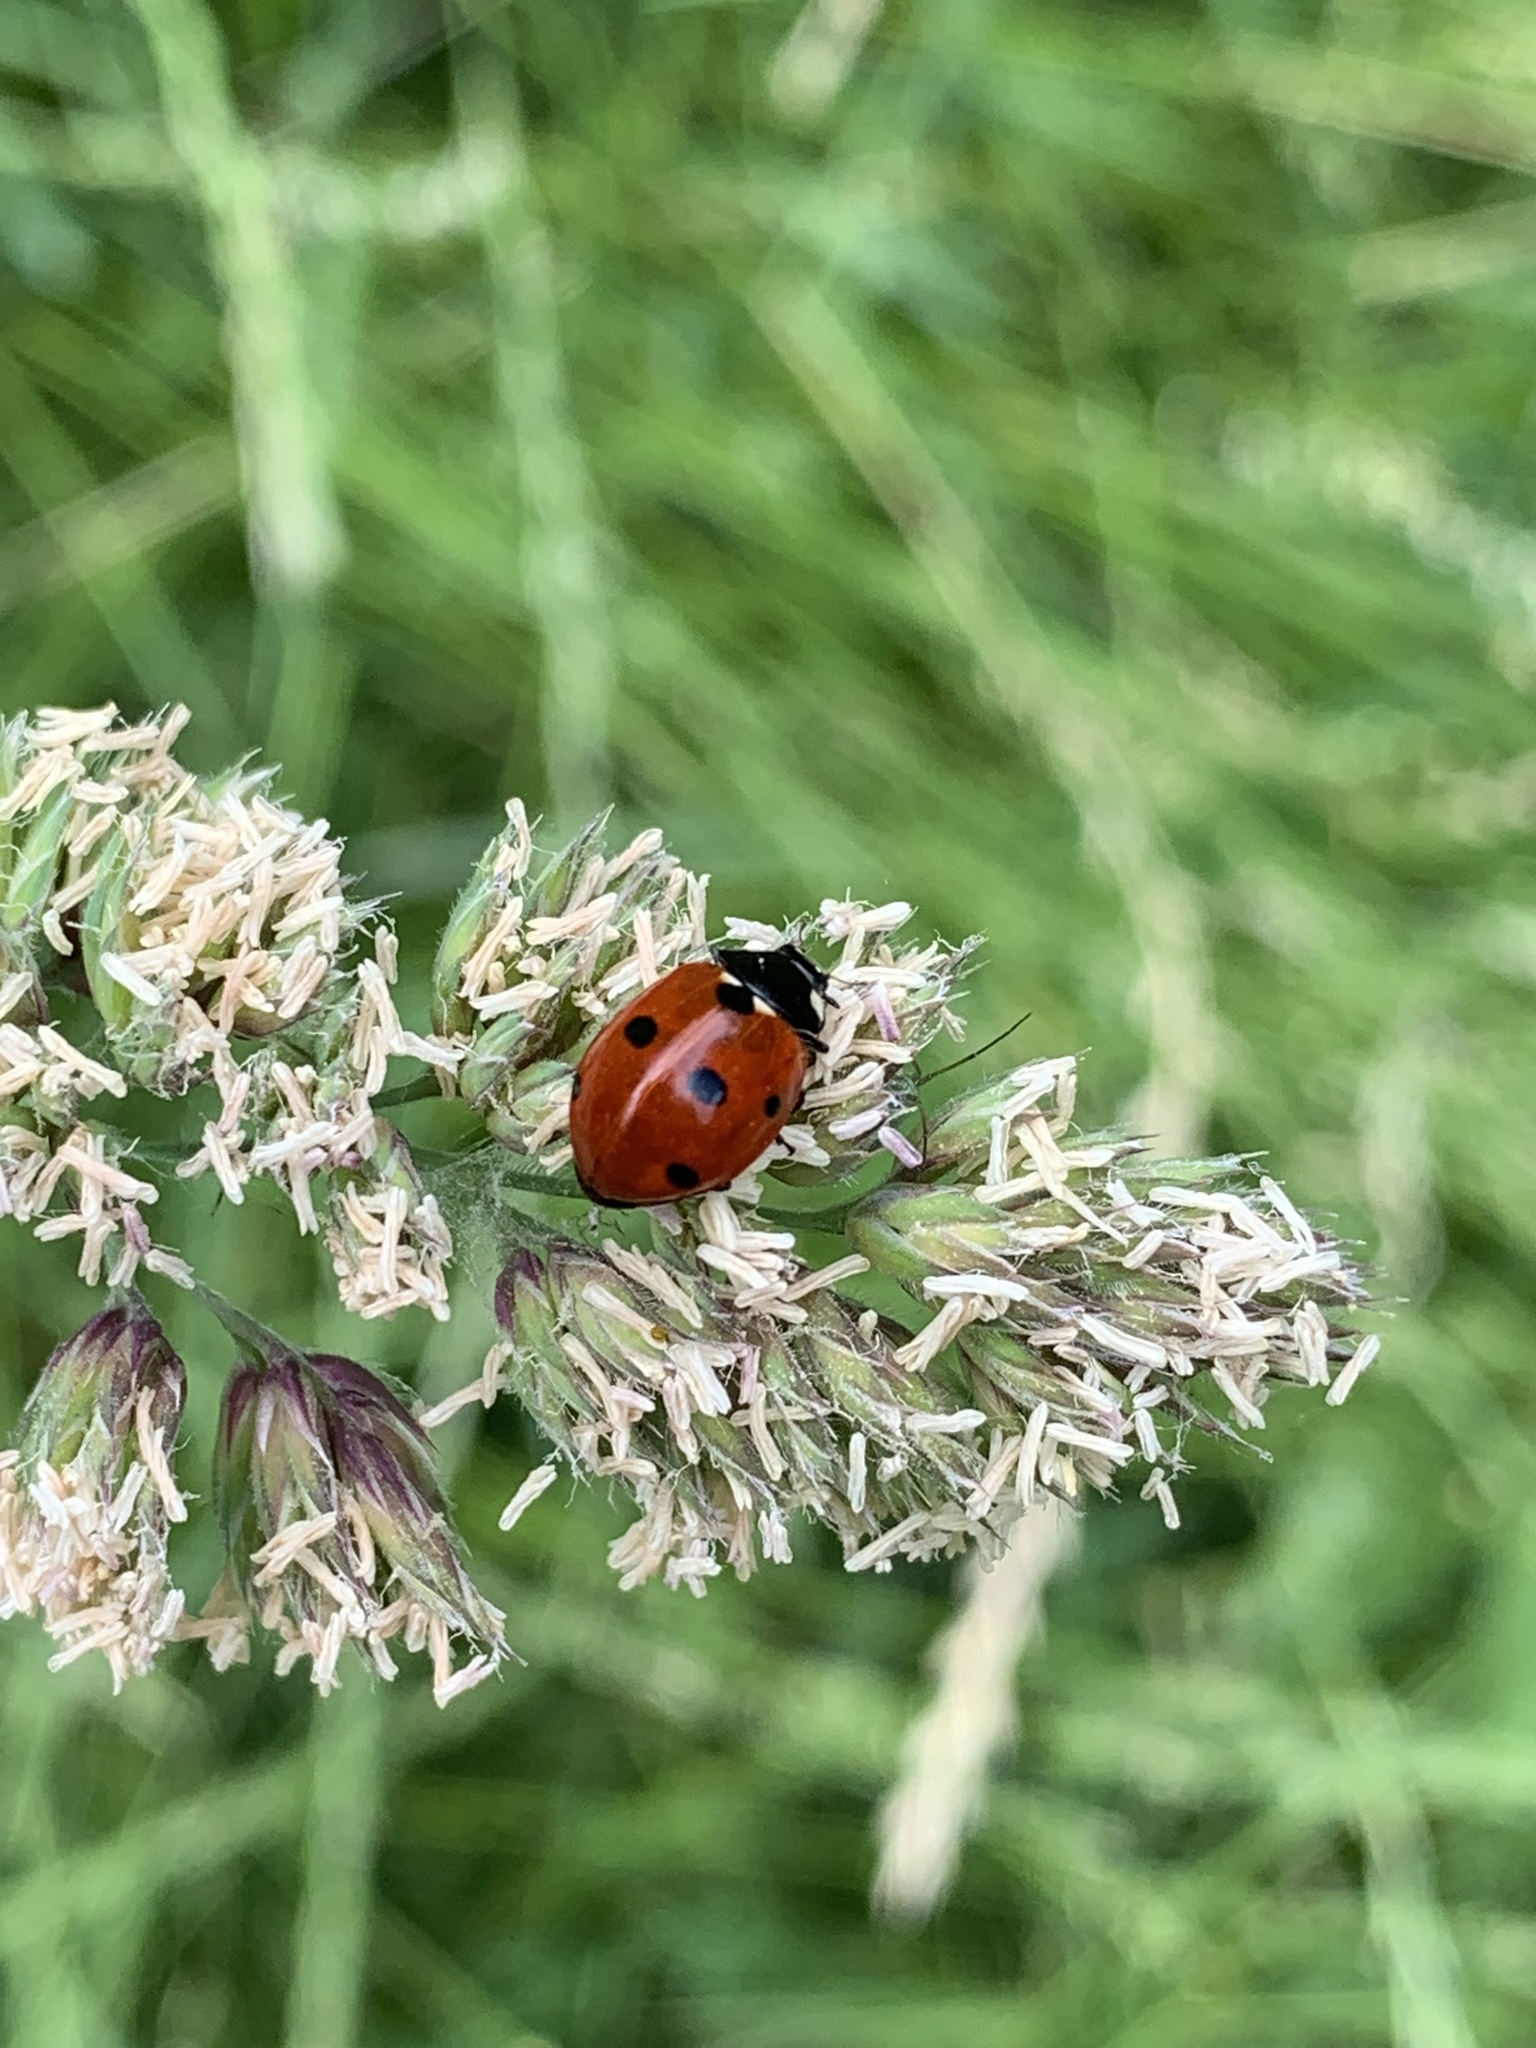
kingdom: Animalia
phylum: Arthropoda
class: Insecta
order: Coleoptera
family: Coccinellidae
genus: Coccinella
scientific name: Coccinella septempunctata
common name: Sevenspotted lady beetle
